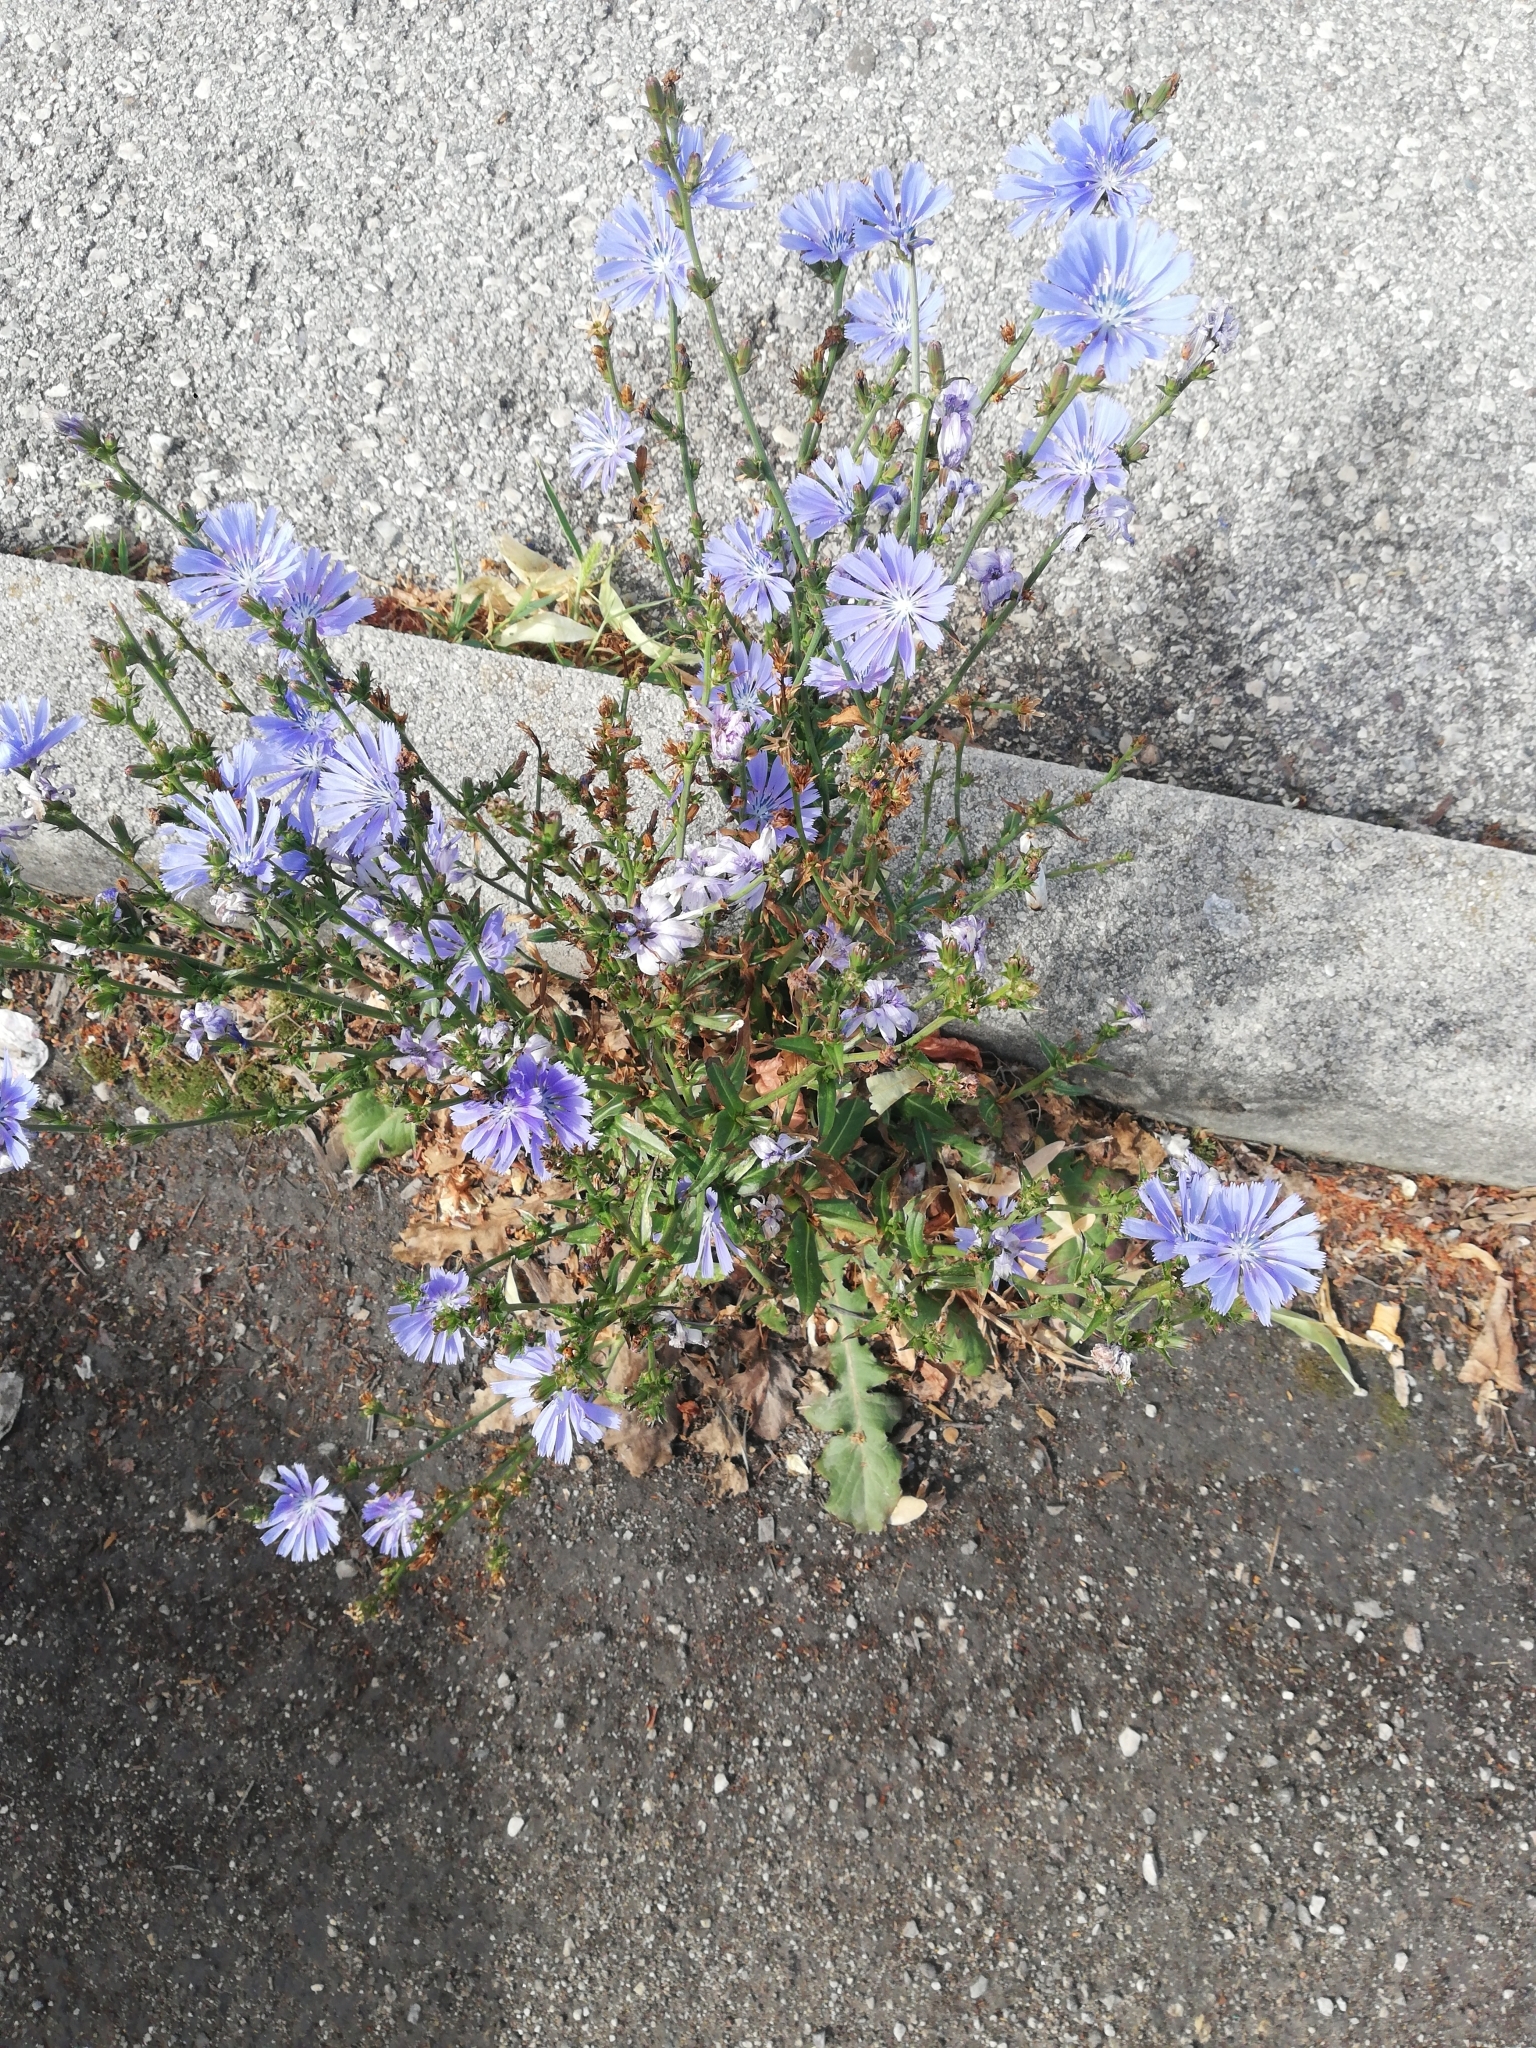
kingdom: Plantae
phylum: Tracheophyta
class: Magnoliopsida
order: Asterales
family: Asteraceae
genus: Cichorium
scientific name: Cichorium intybus
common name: Chicory
